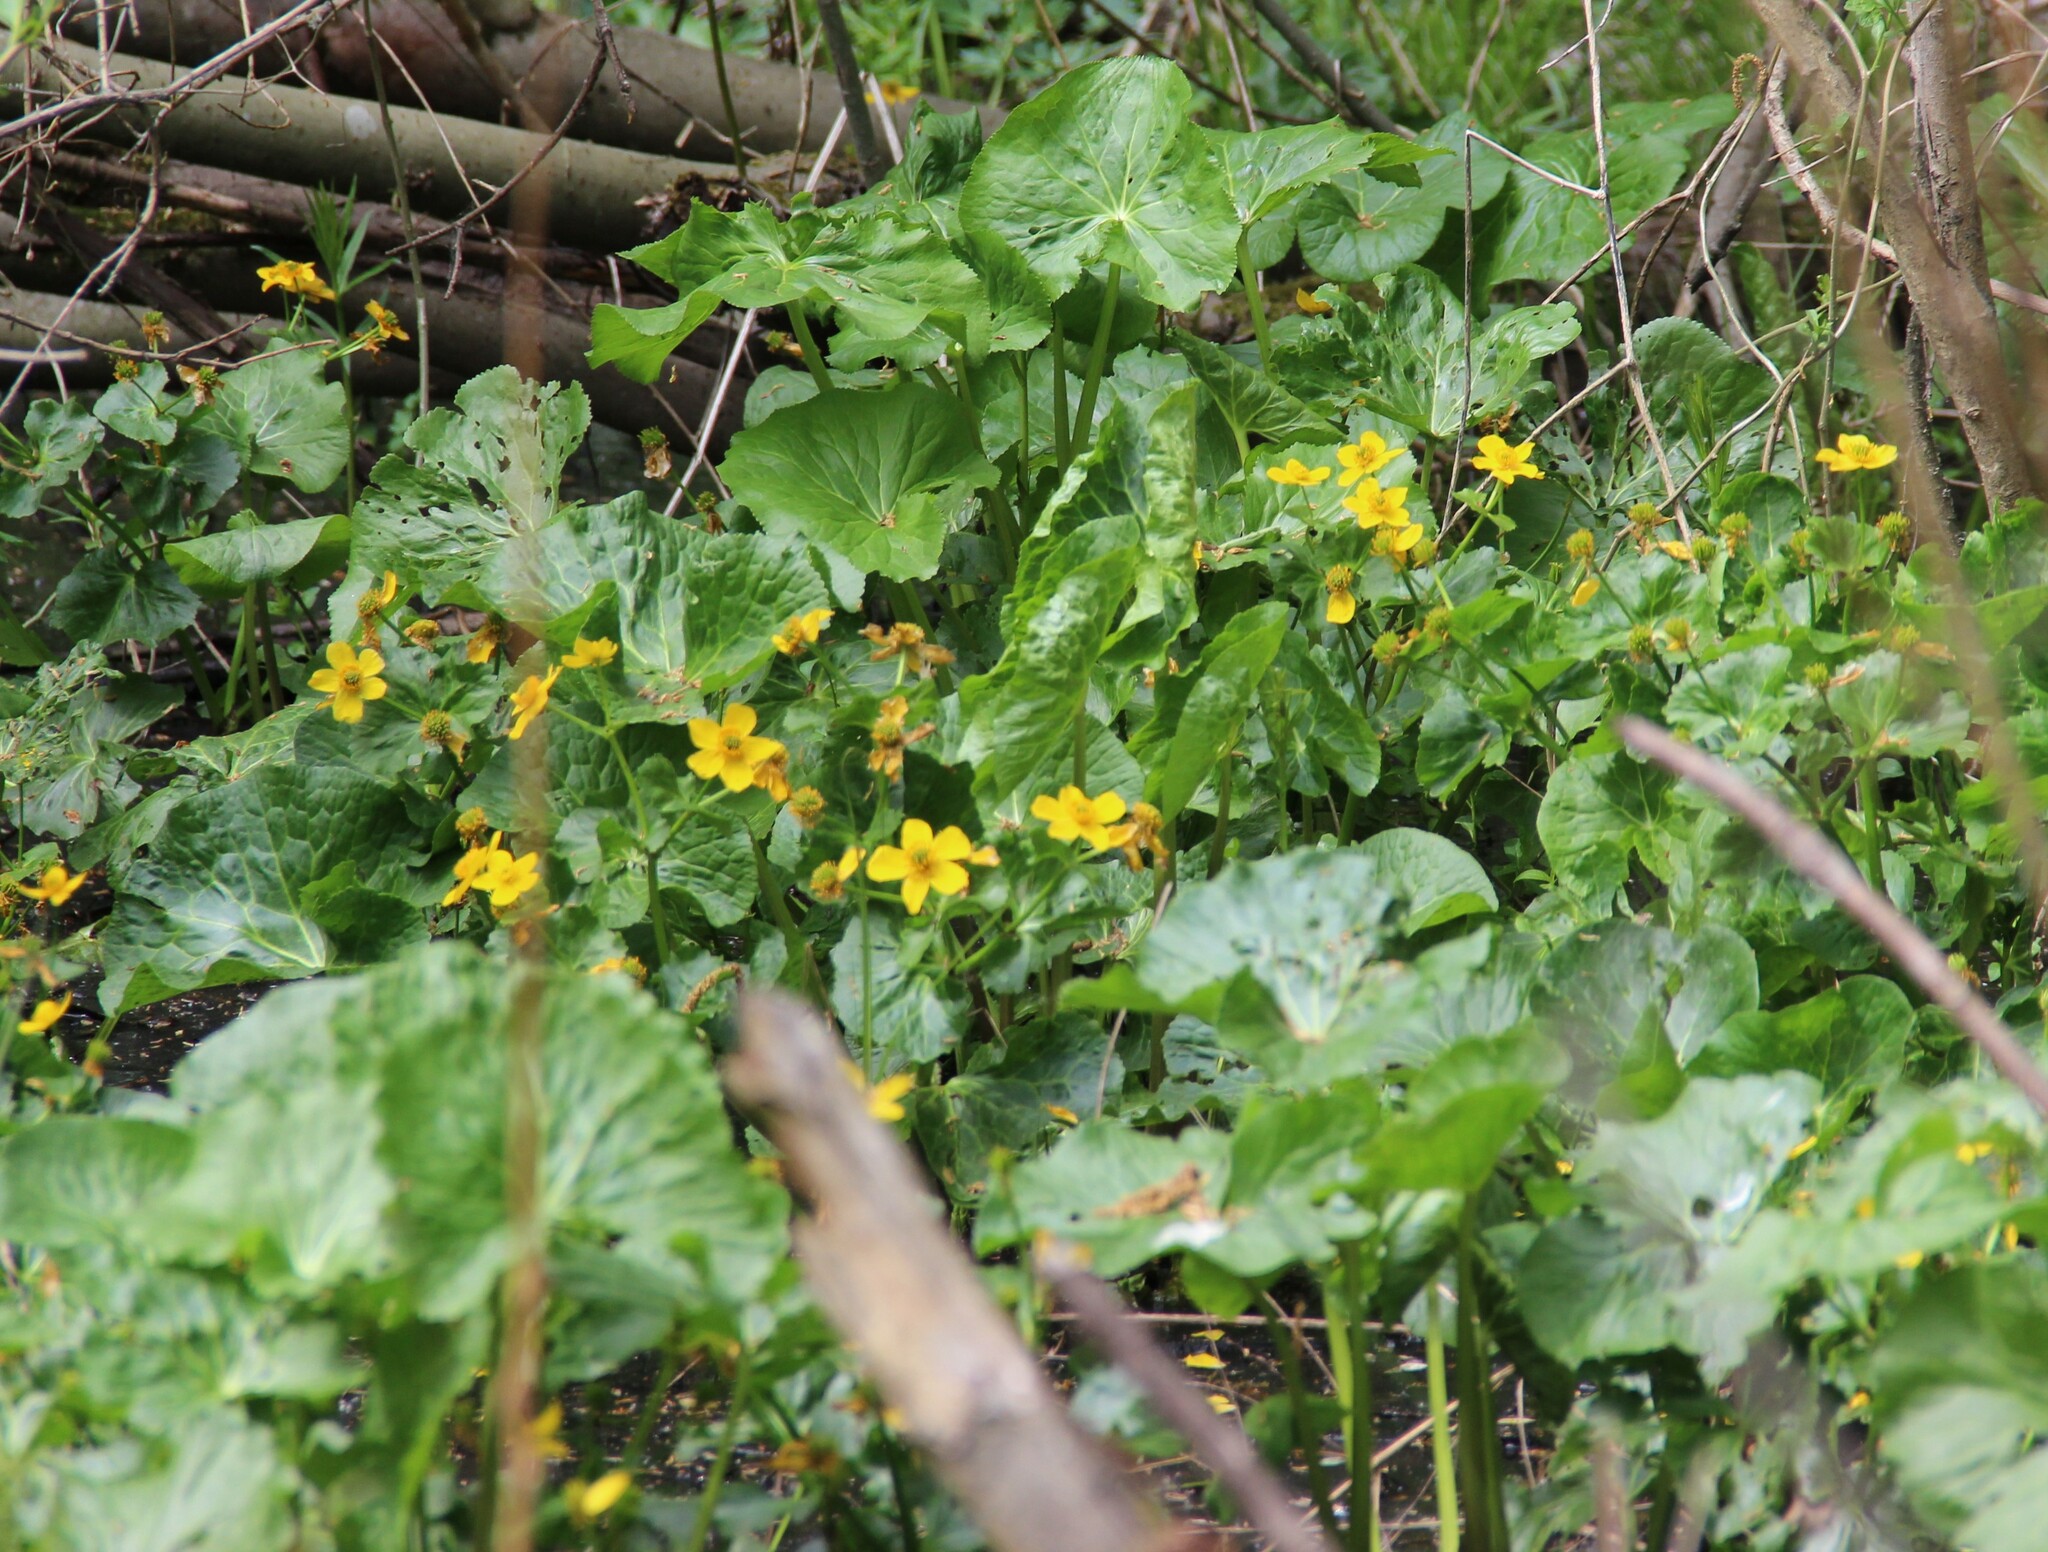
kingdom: Plantae
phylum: Tracheophyta
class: Magnoliopsida
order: Ranunculales
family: Ranunculaceae
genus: Caltha
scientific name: Caltha palustris
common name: Marsh marigold
